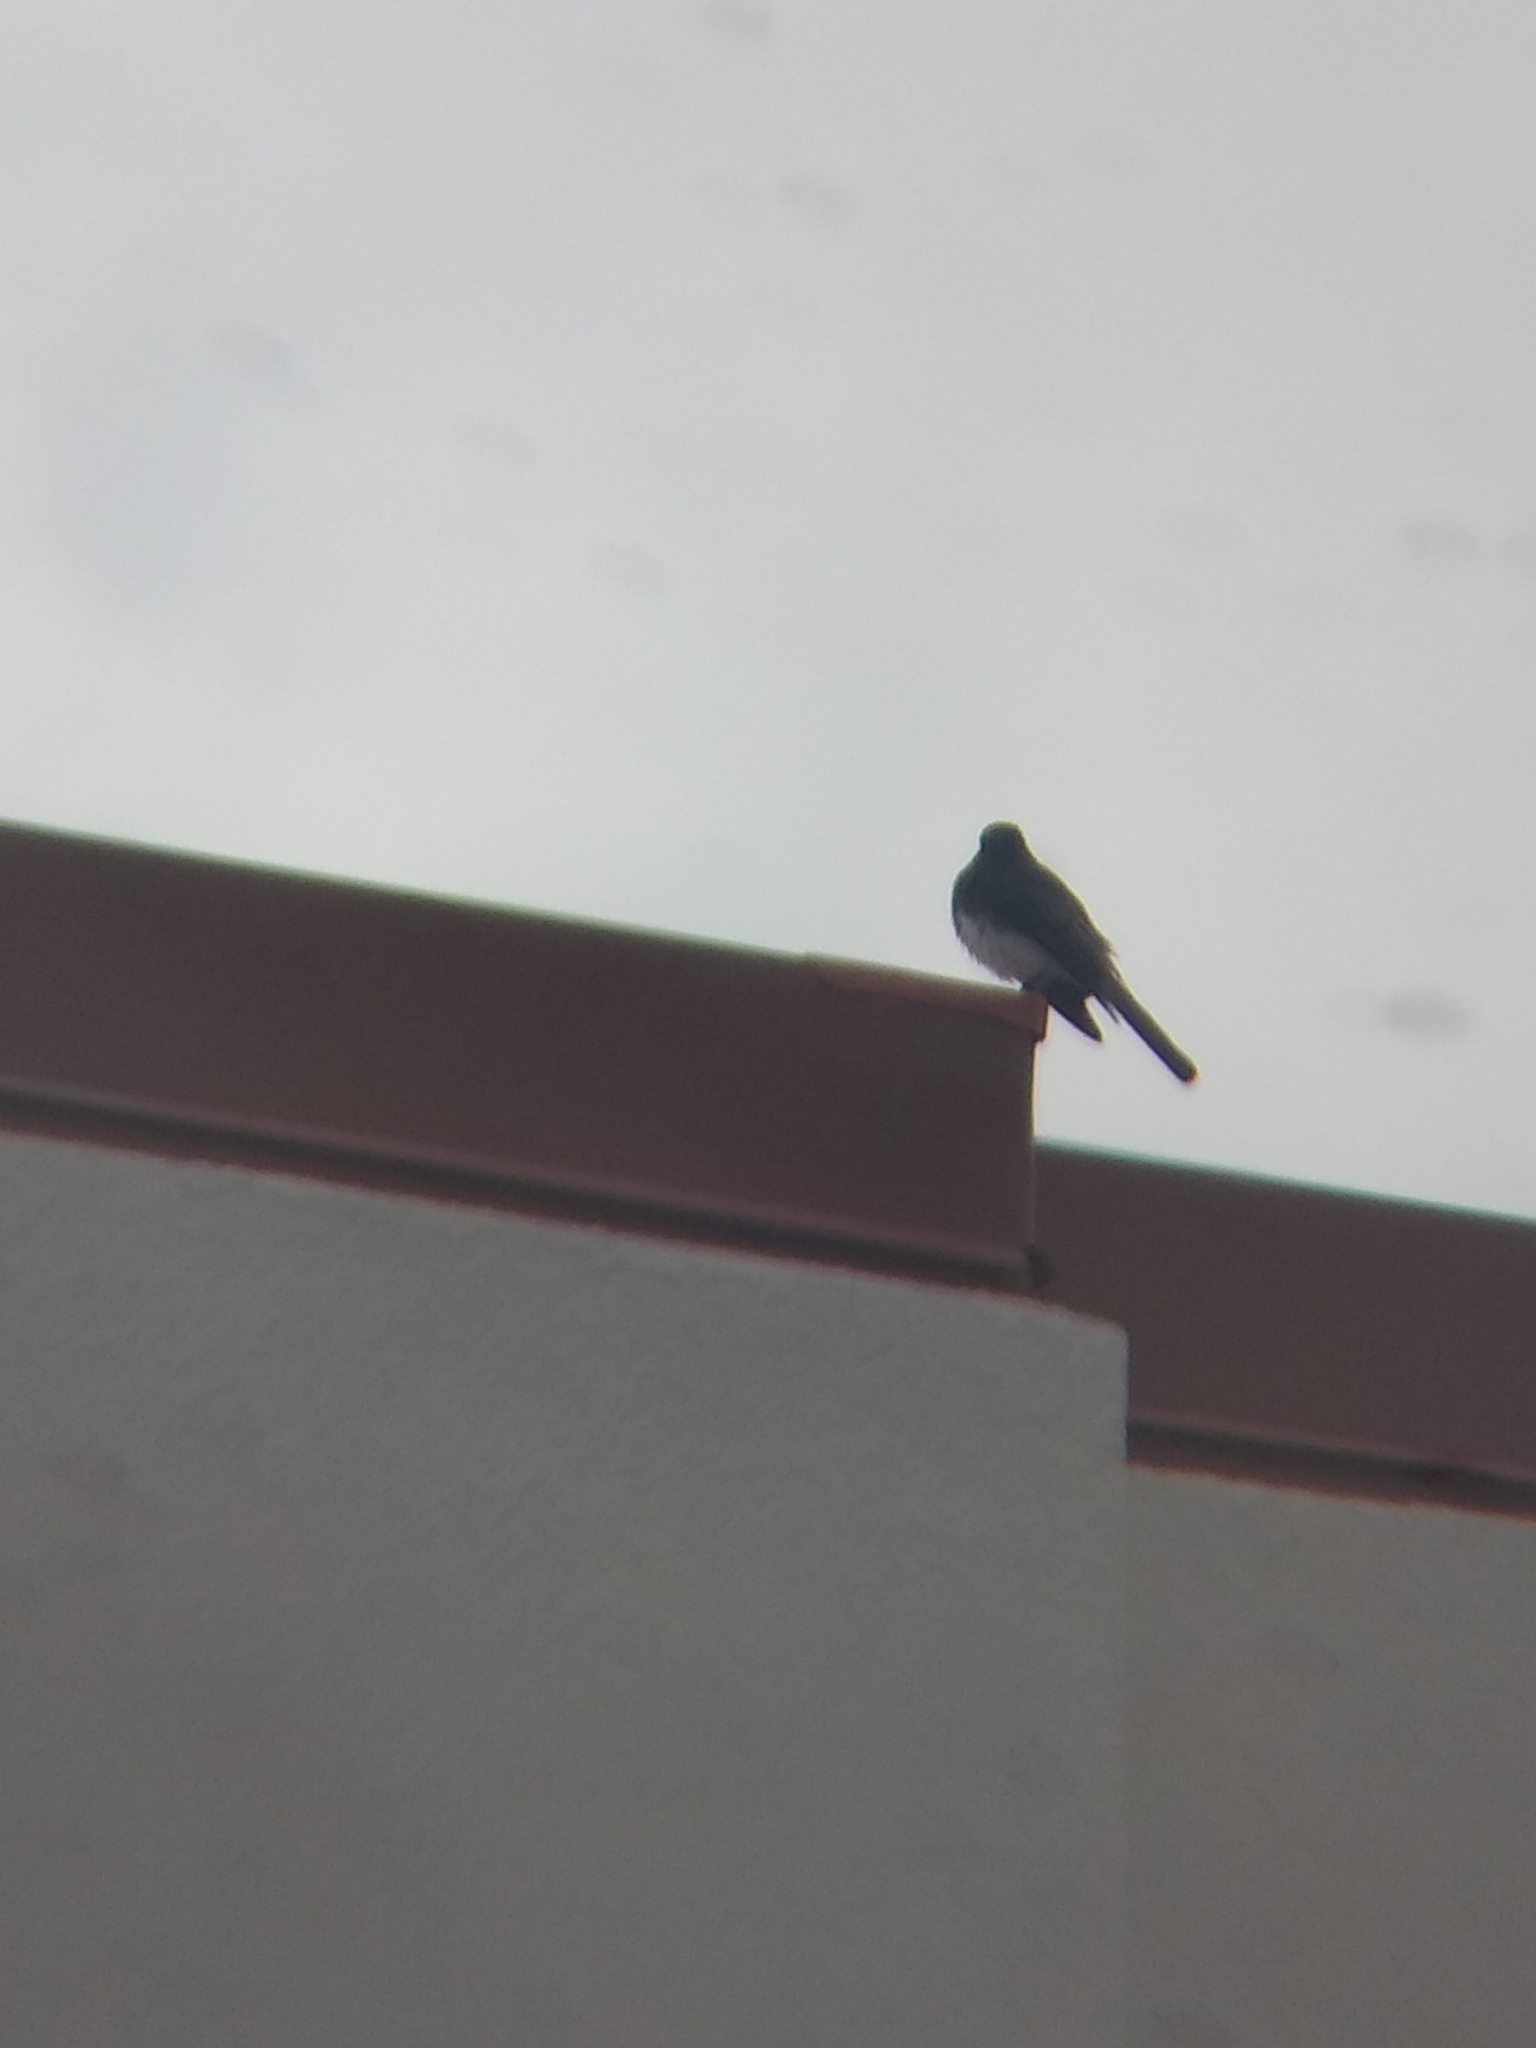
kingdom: Animalia
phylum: Chordata
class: Aves
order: Passeriformes
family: Tyrannidae
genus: Sayornis
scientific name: Sayornis nigricans
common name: Black phoebe
